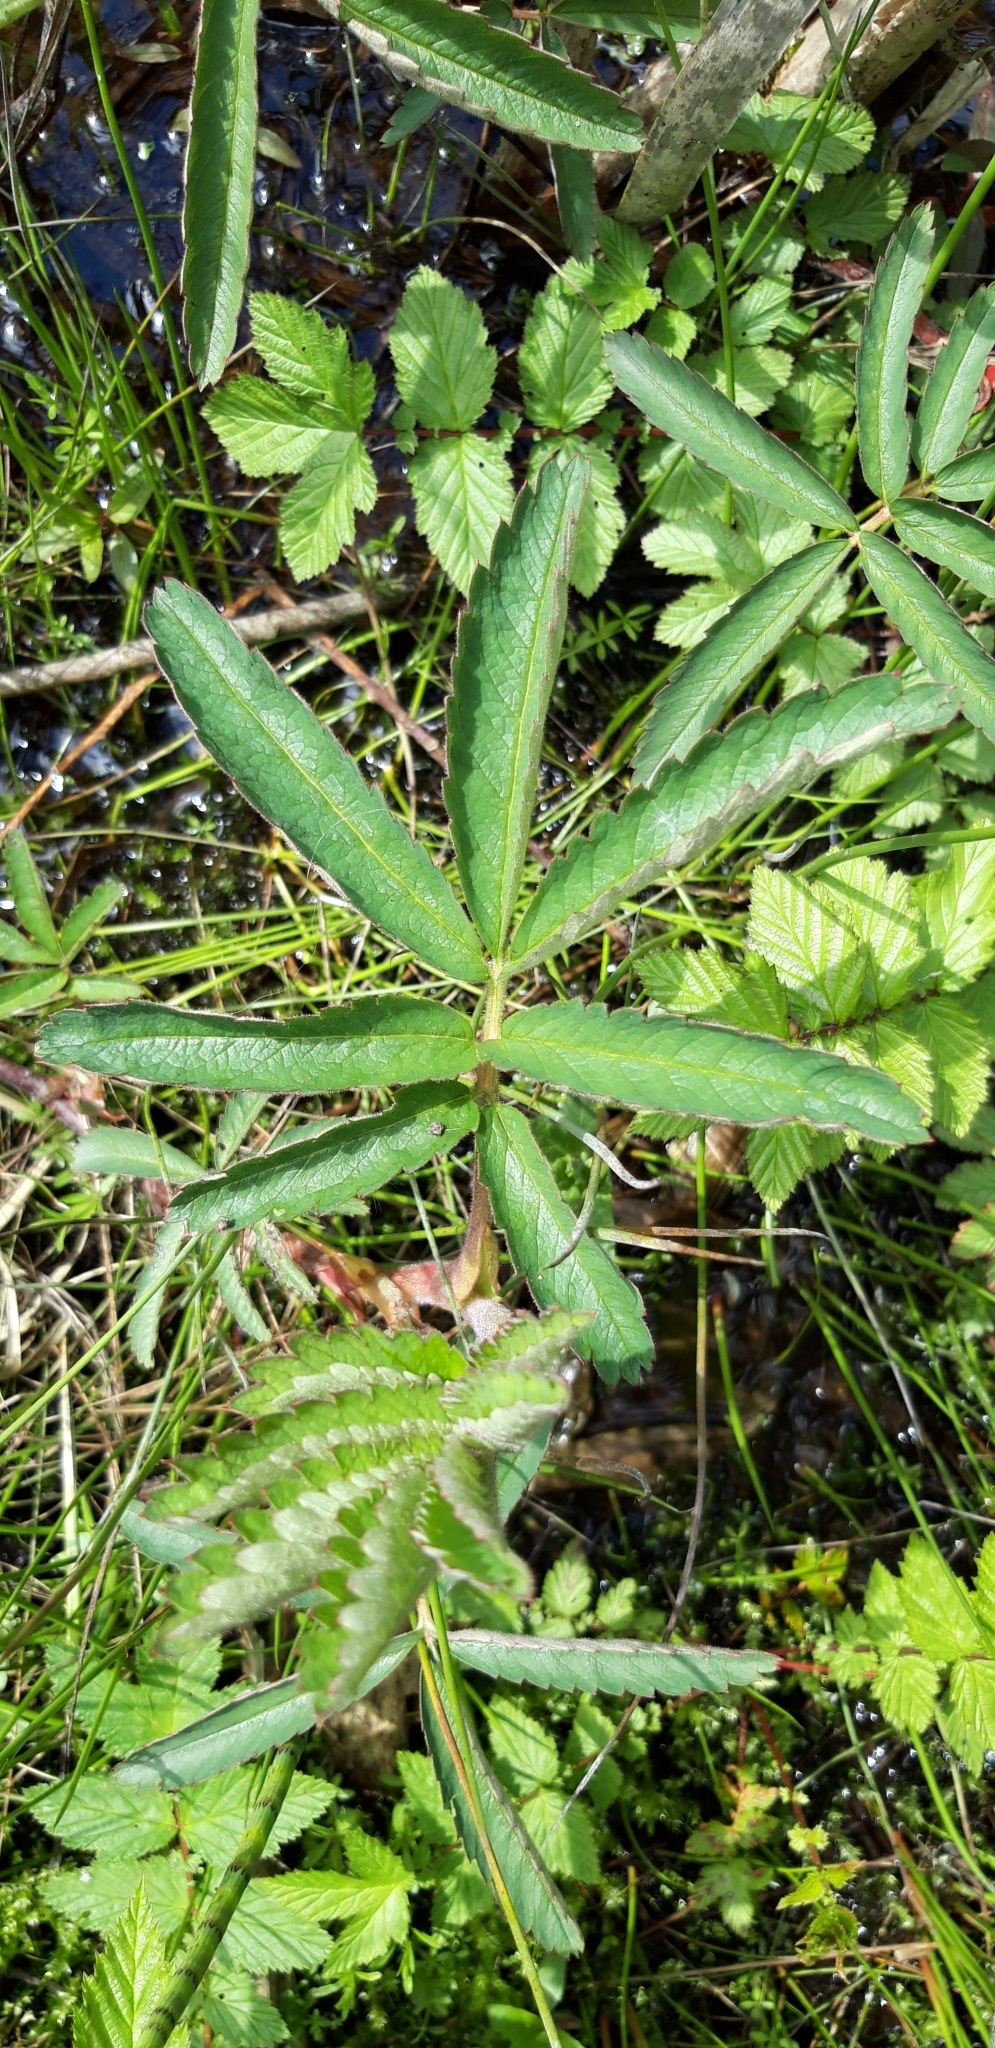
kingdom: Plantae
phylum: Tracheophyta
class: Magnoliopsida
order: Rosales
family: Rosaceae
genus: Comarum
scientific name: Comarum palustre
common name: Marsh cinquefoil
